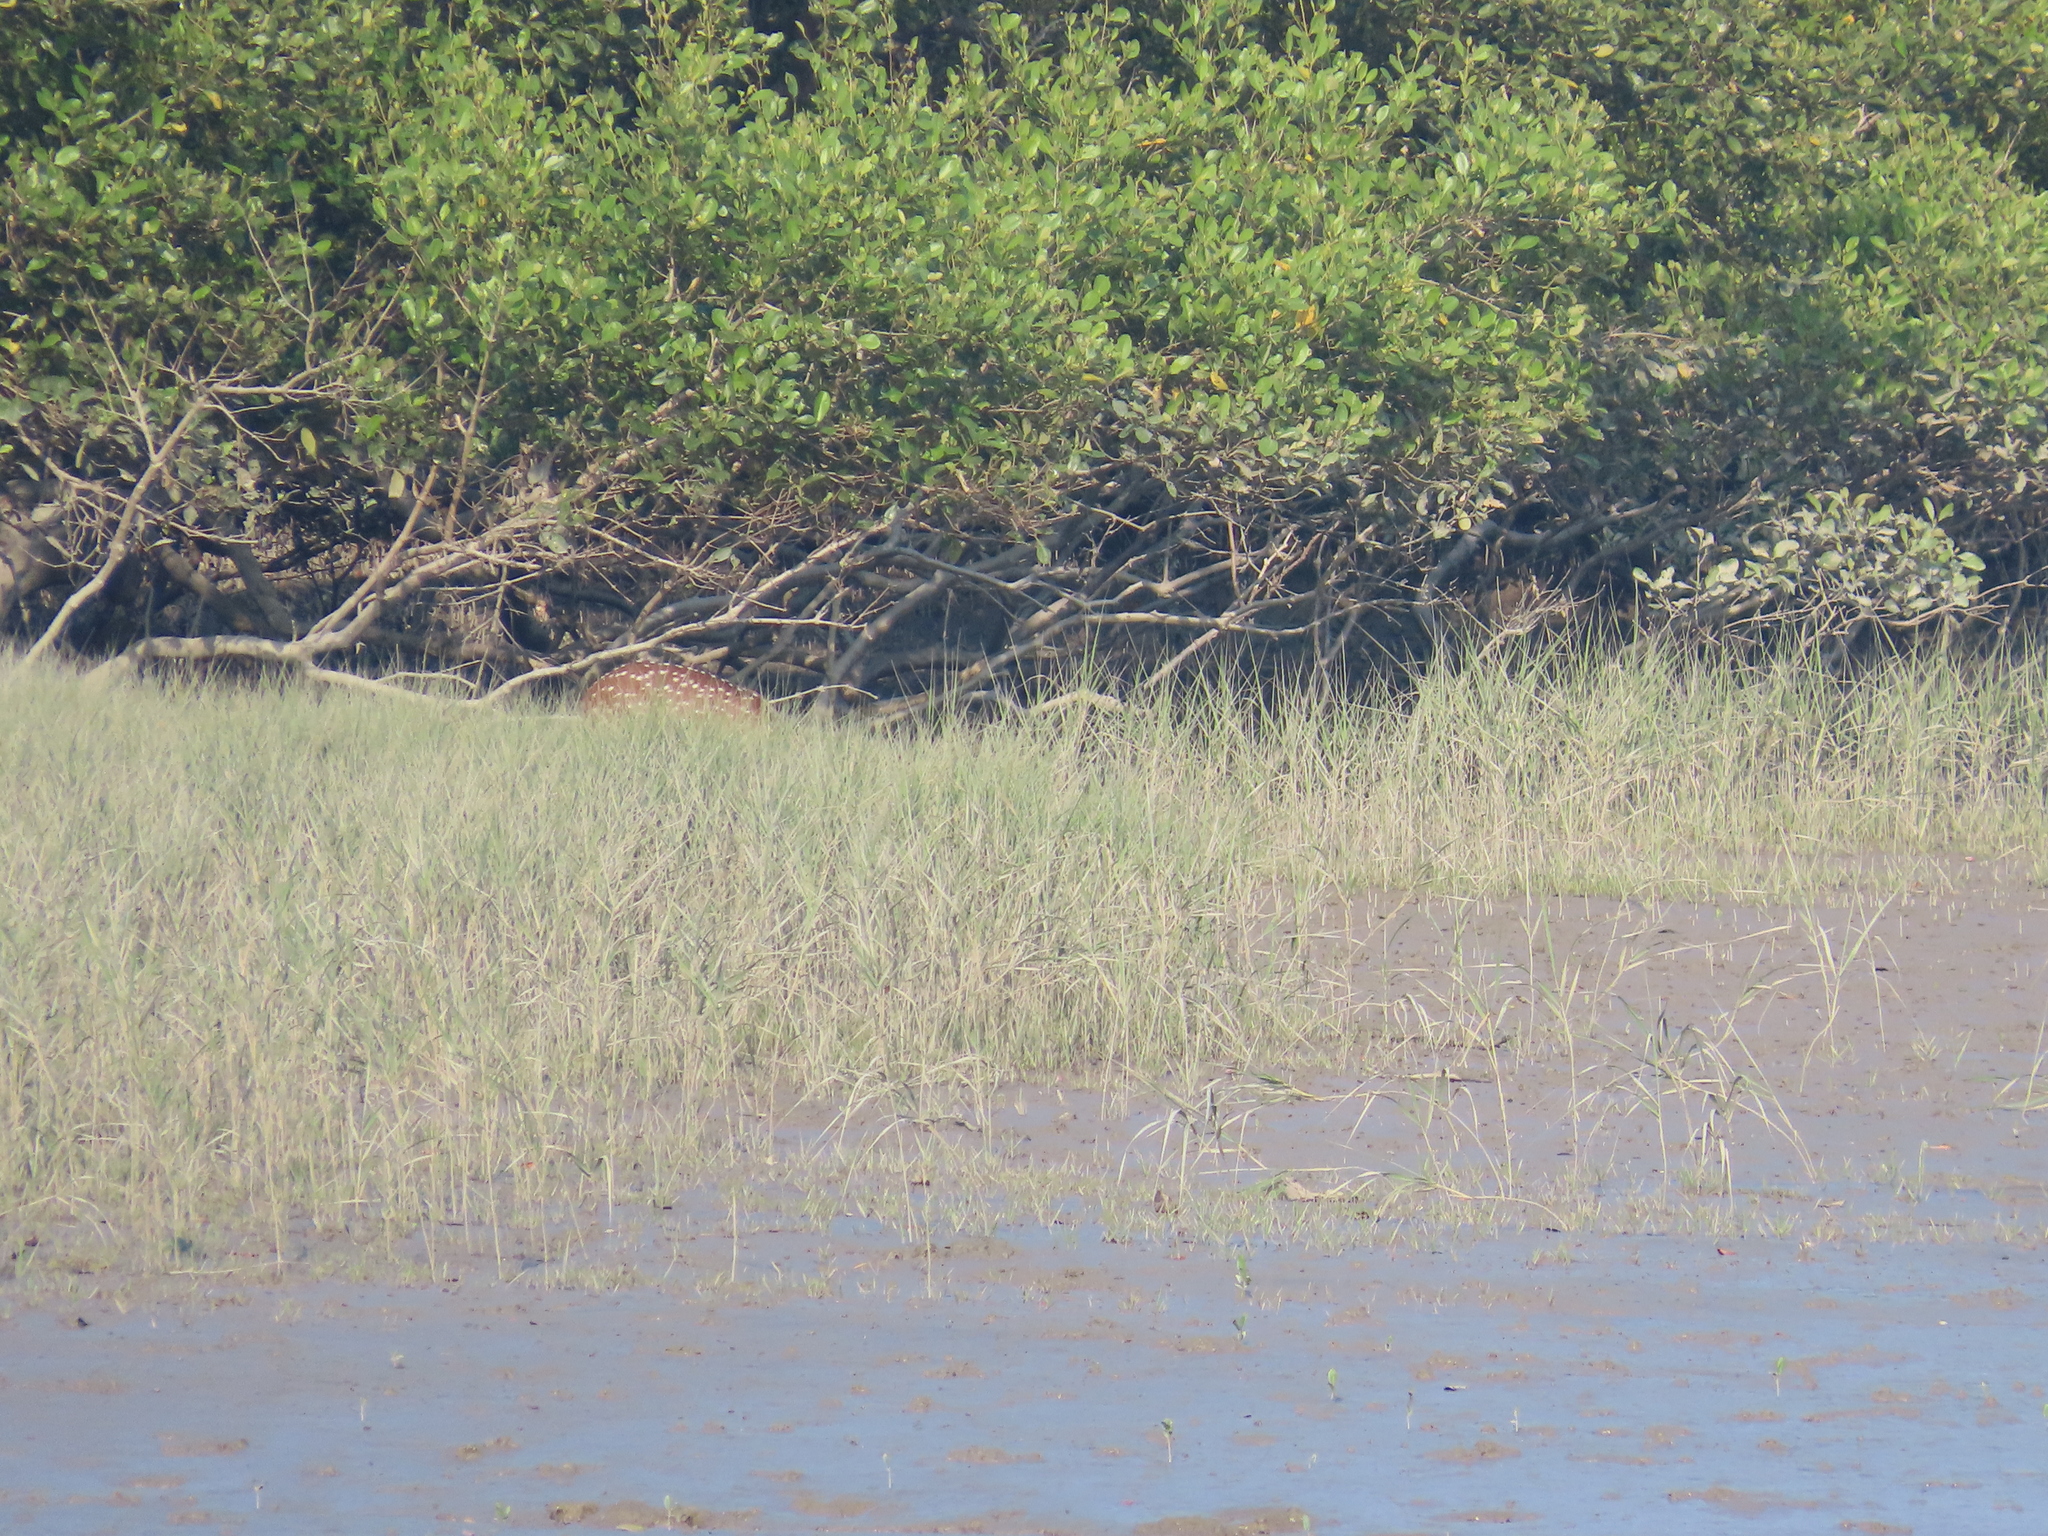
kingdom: Animalia
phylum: Chordata
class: Mammalia
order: Artiodactyla
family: Cervidae
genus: Axis
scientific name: Axis axis
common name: Chital
